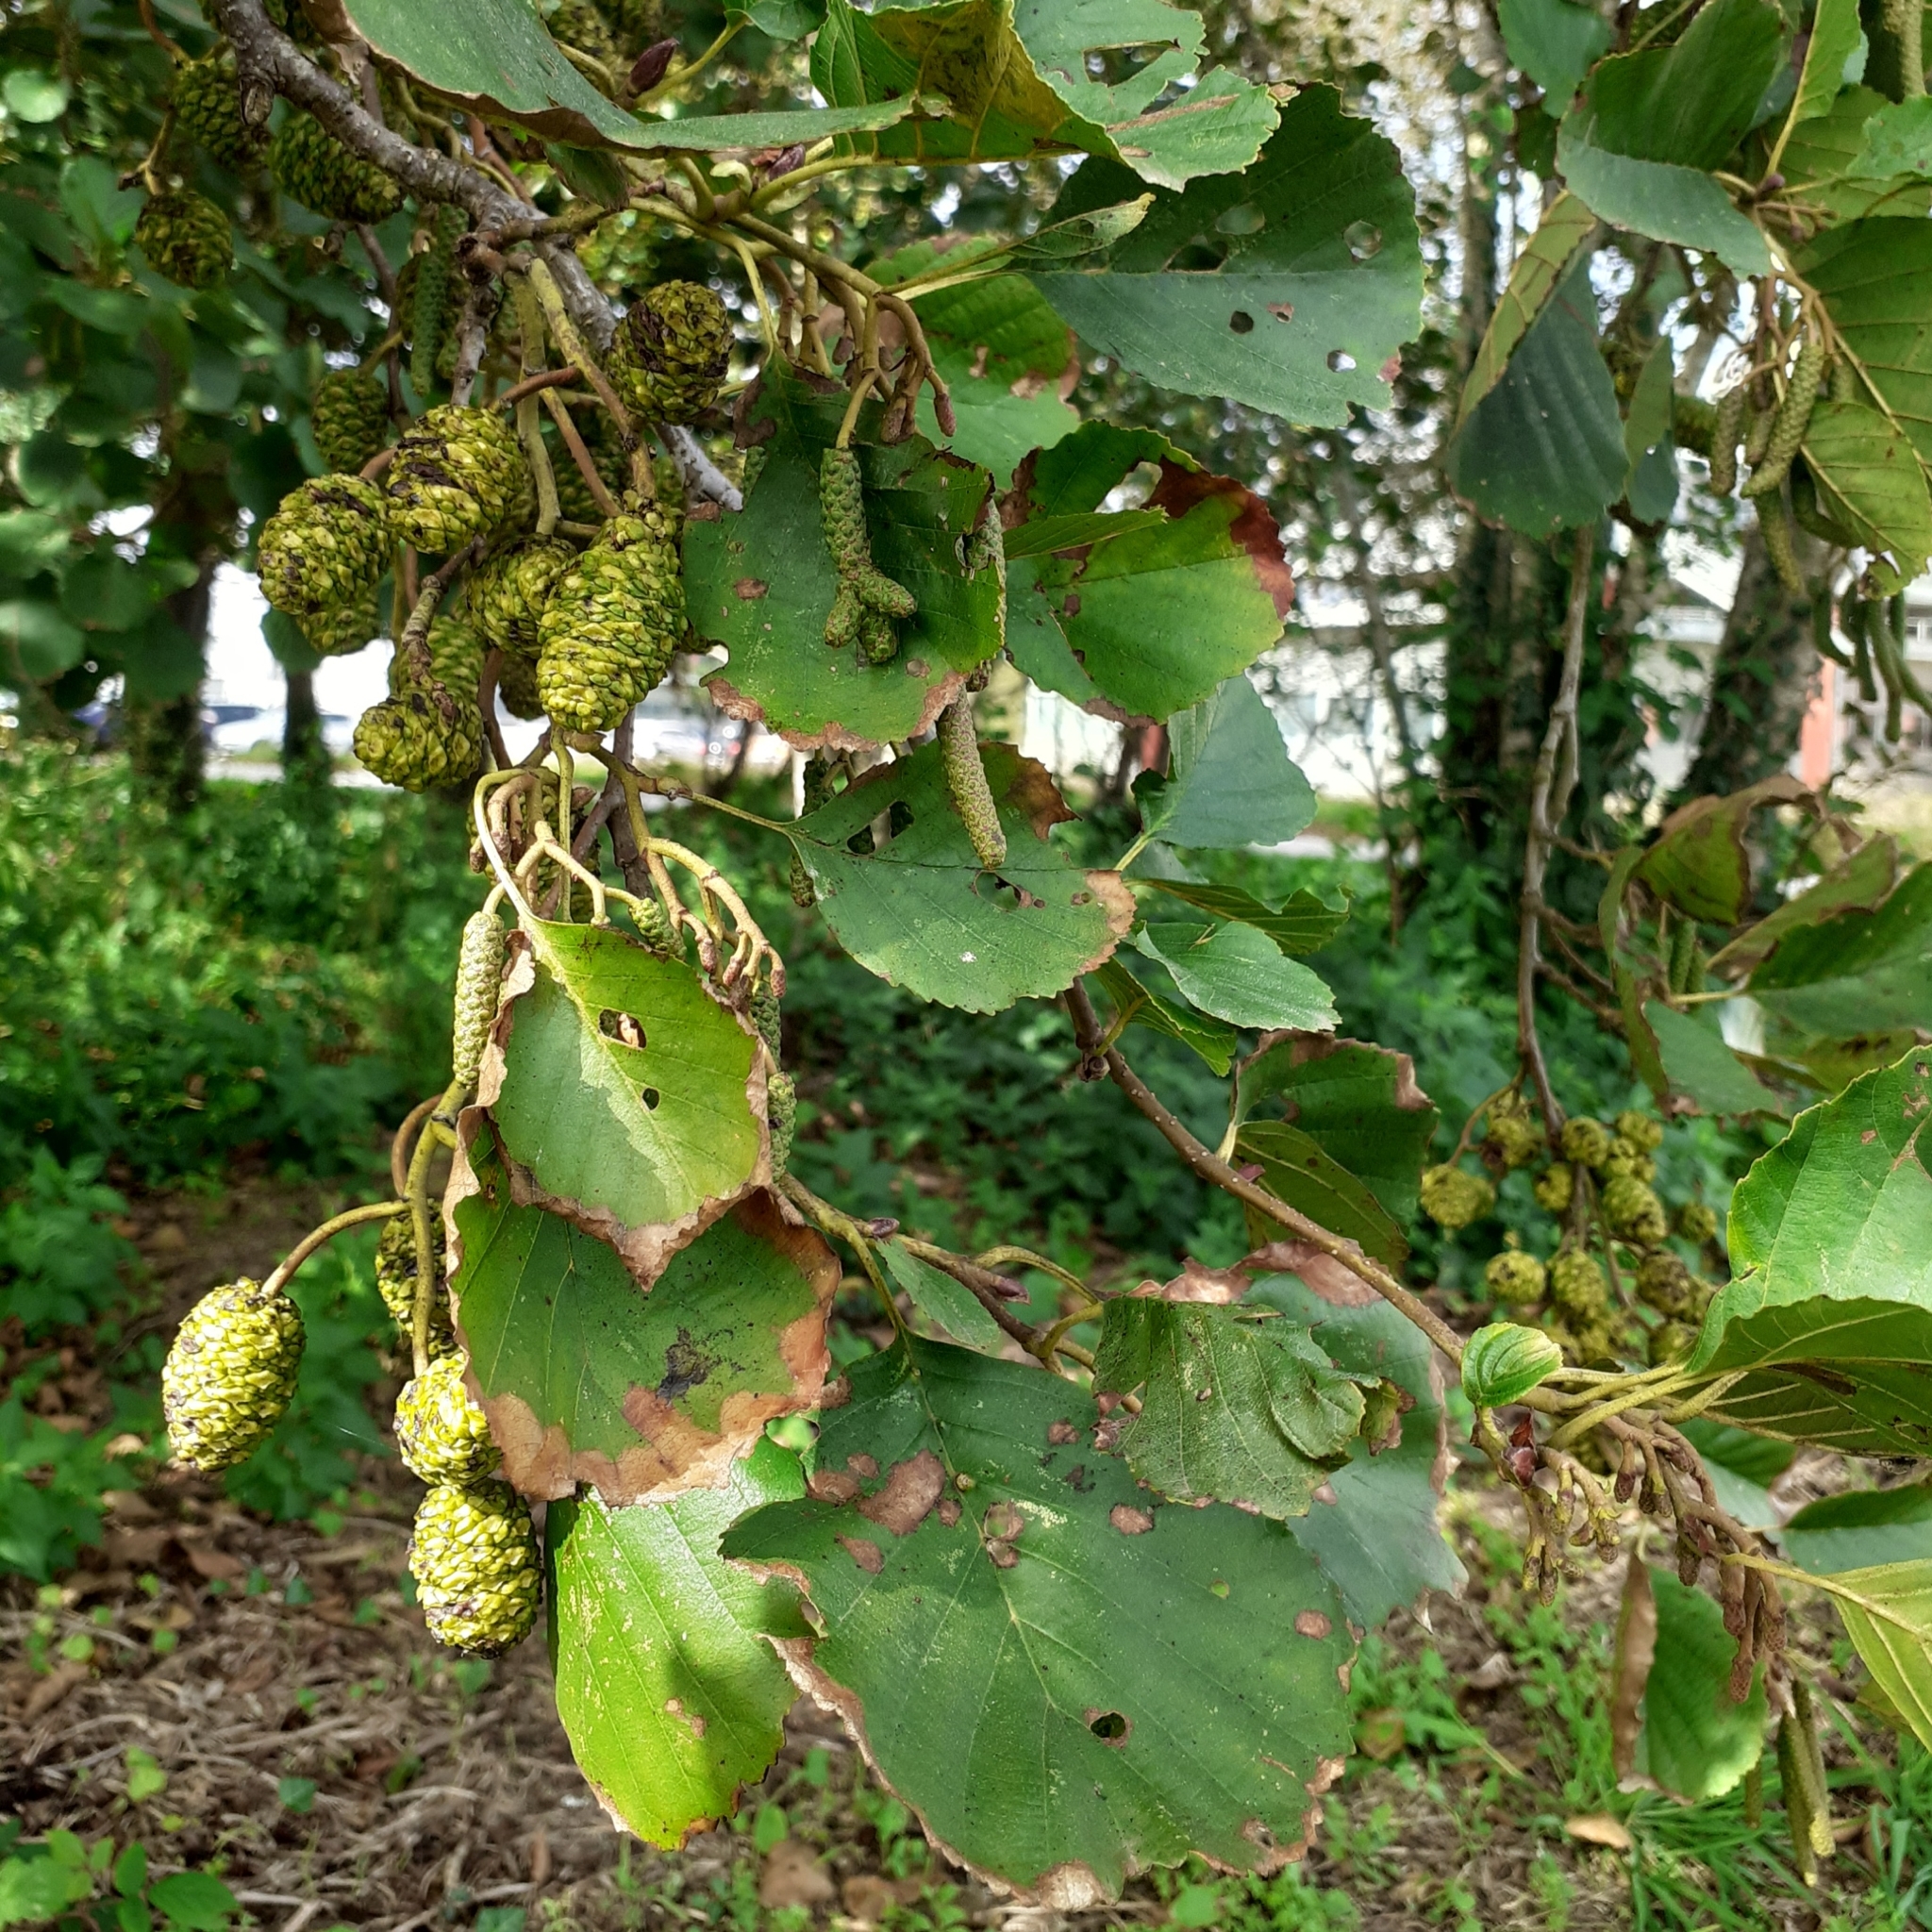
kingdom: Plantae
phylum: Tracheophyta
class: Magnoliopsida
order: Fagales
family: Betulaceae
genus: Alnus
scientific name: Alnus glutinosa
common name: Black alder
